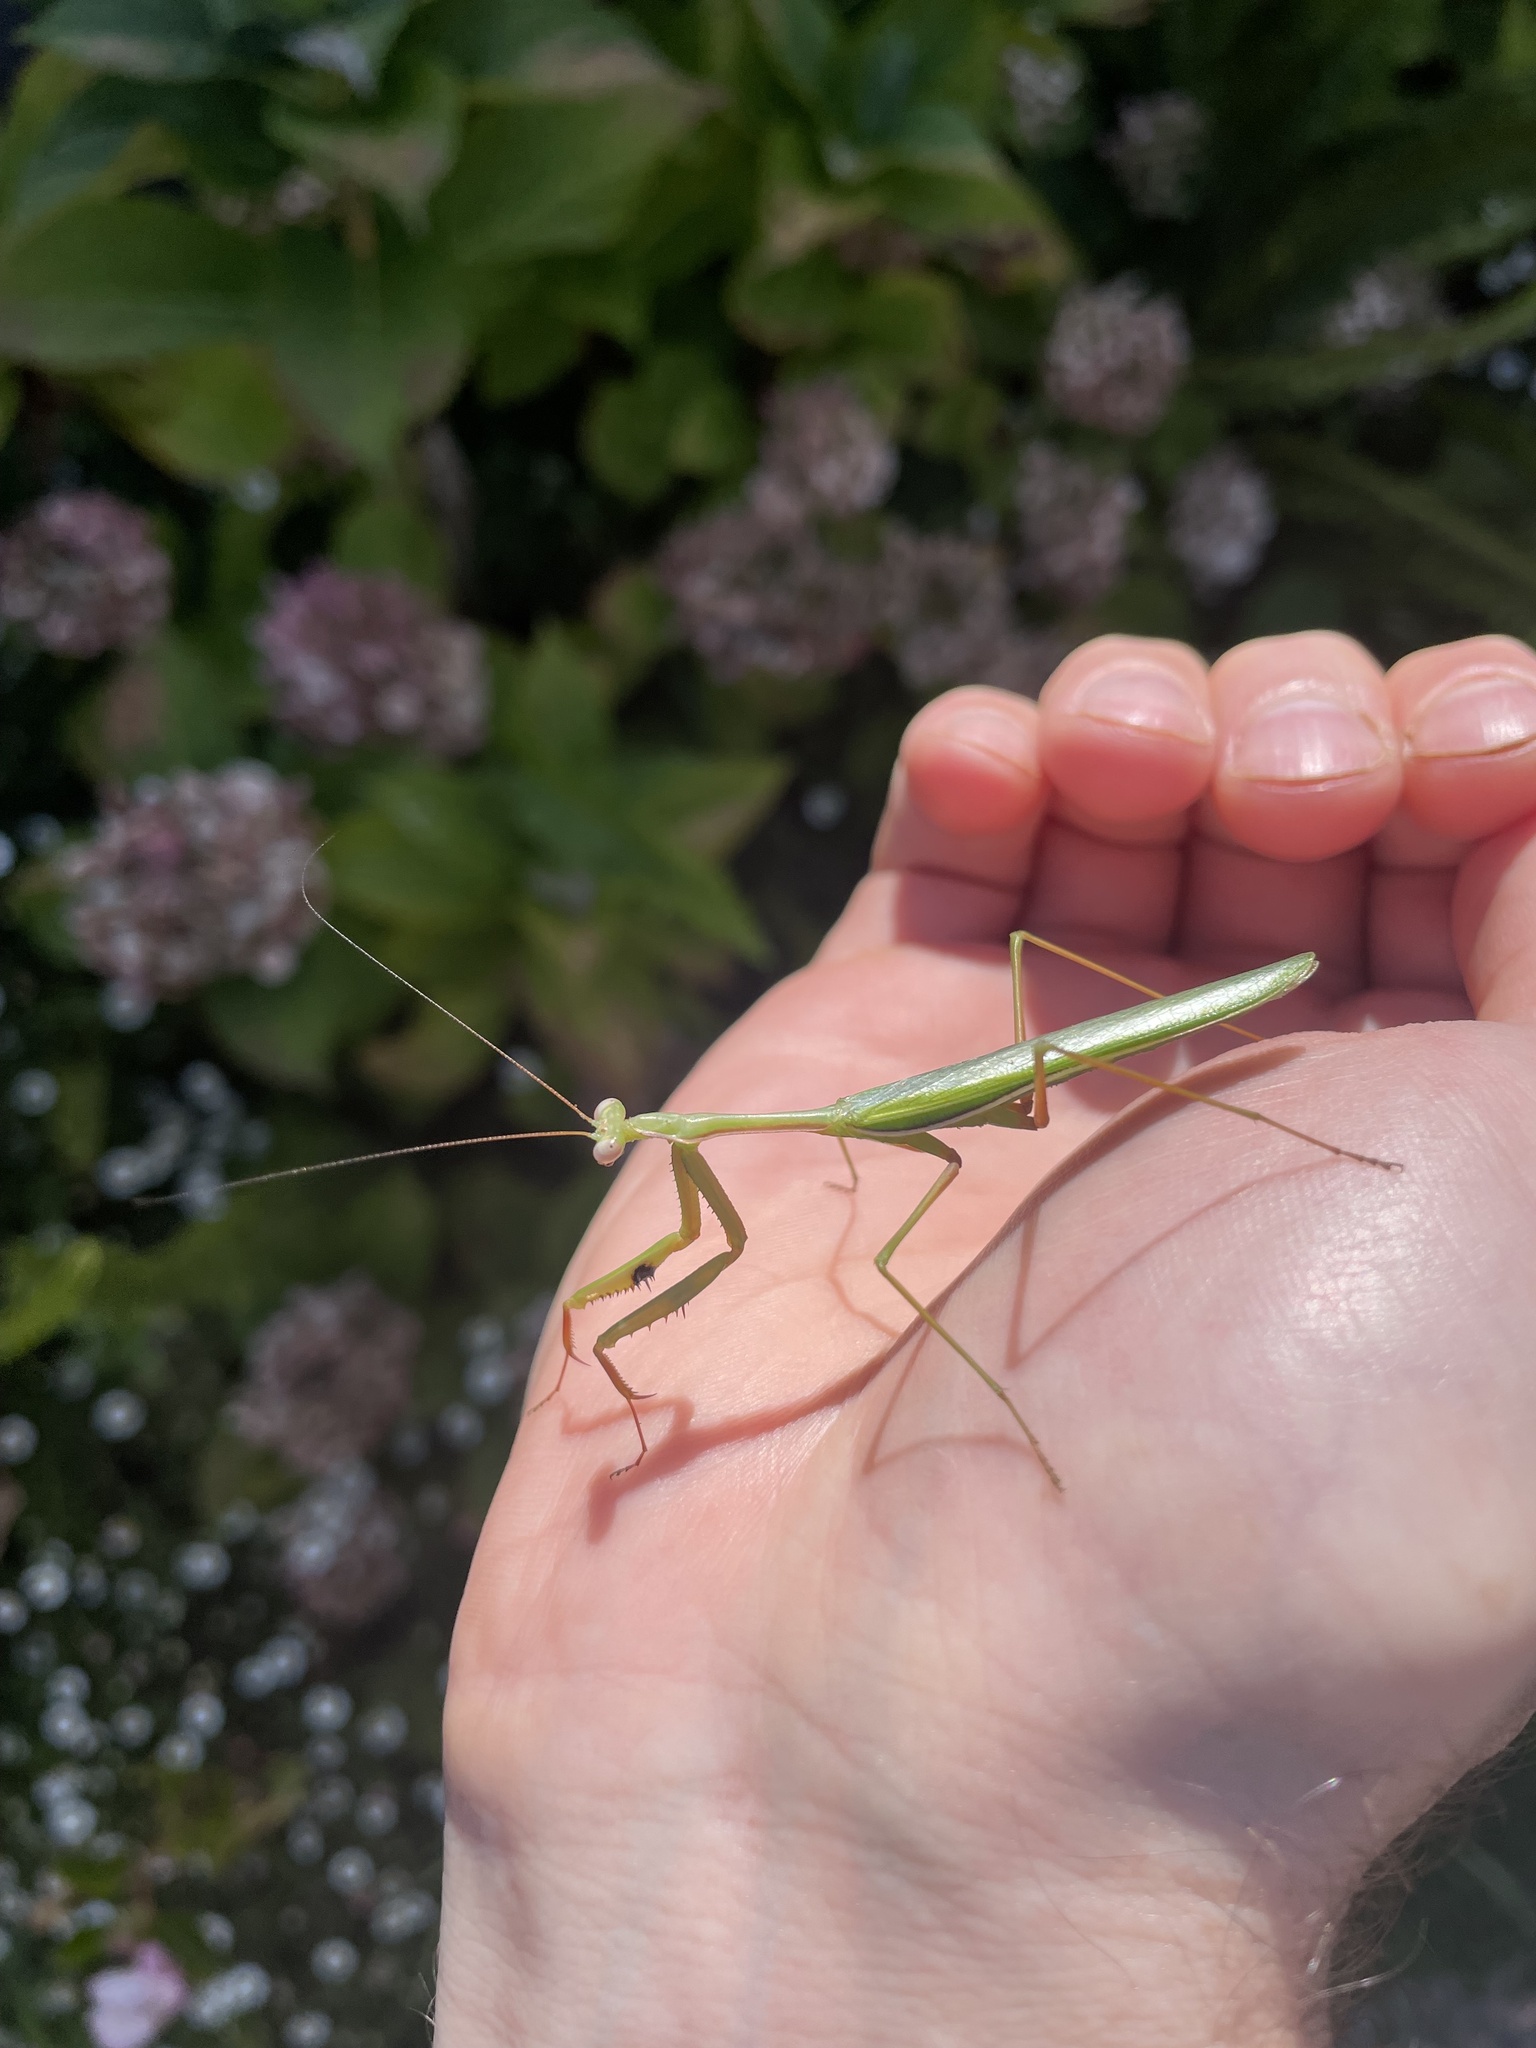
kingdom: Animalia
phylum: Arthropoda
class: Insecta
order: Mantodea
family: Mantidae
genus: Pseudomantis
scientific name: Pseudomantis albofimbriata
